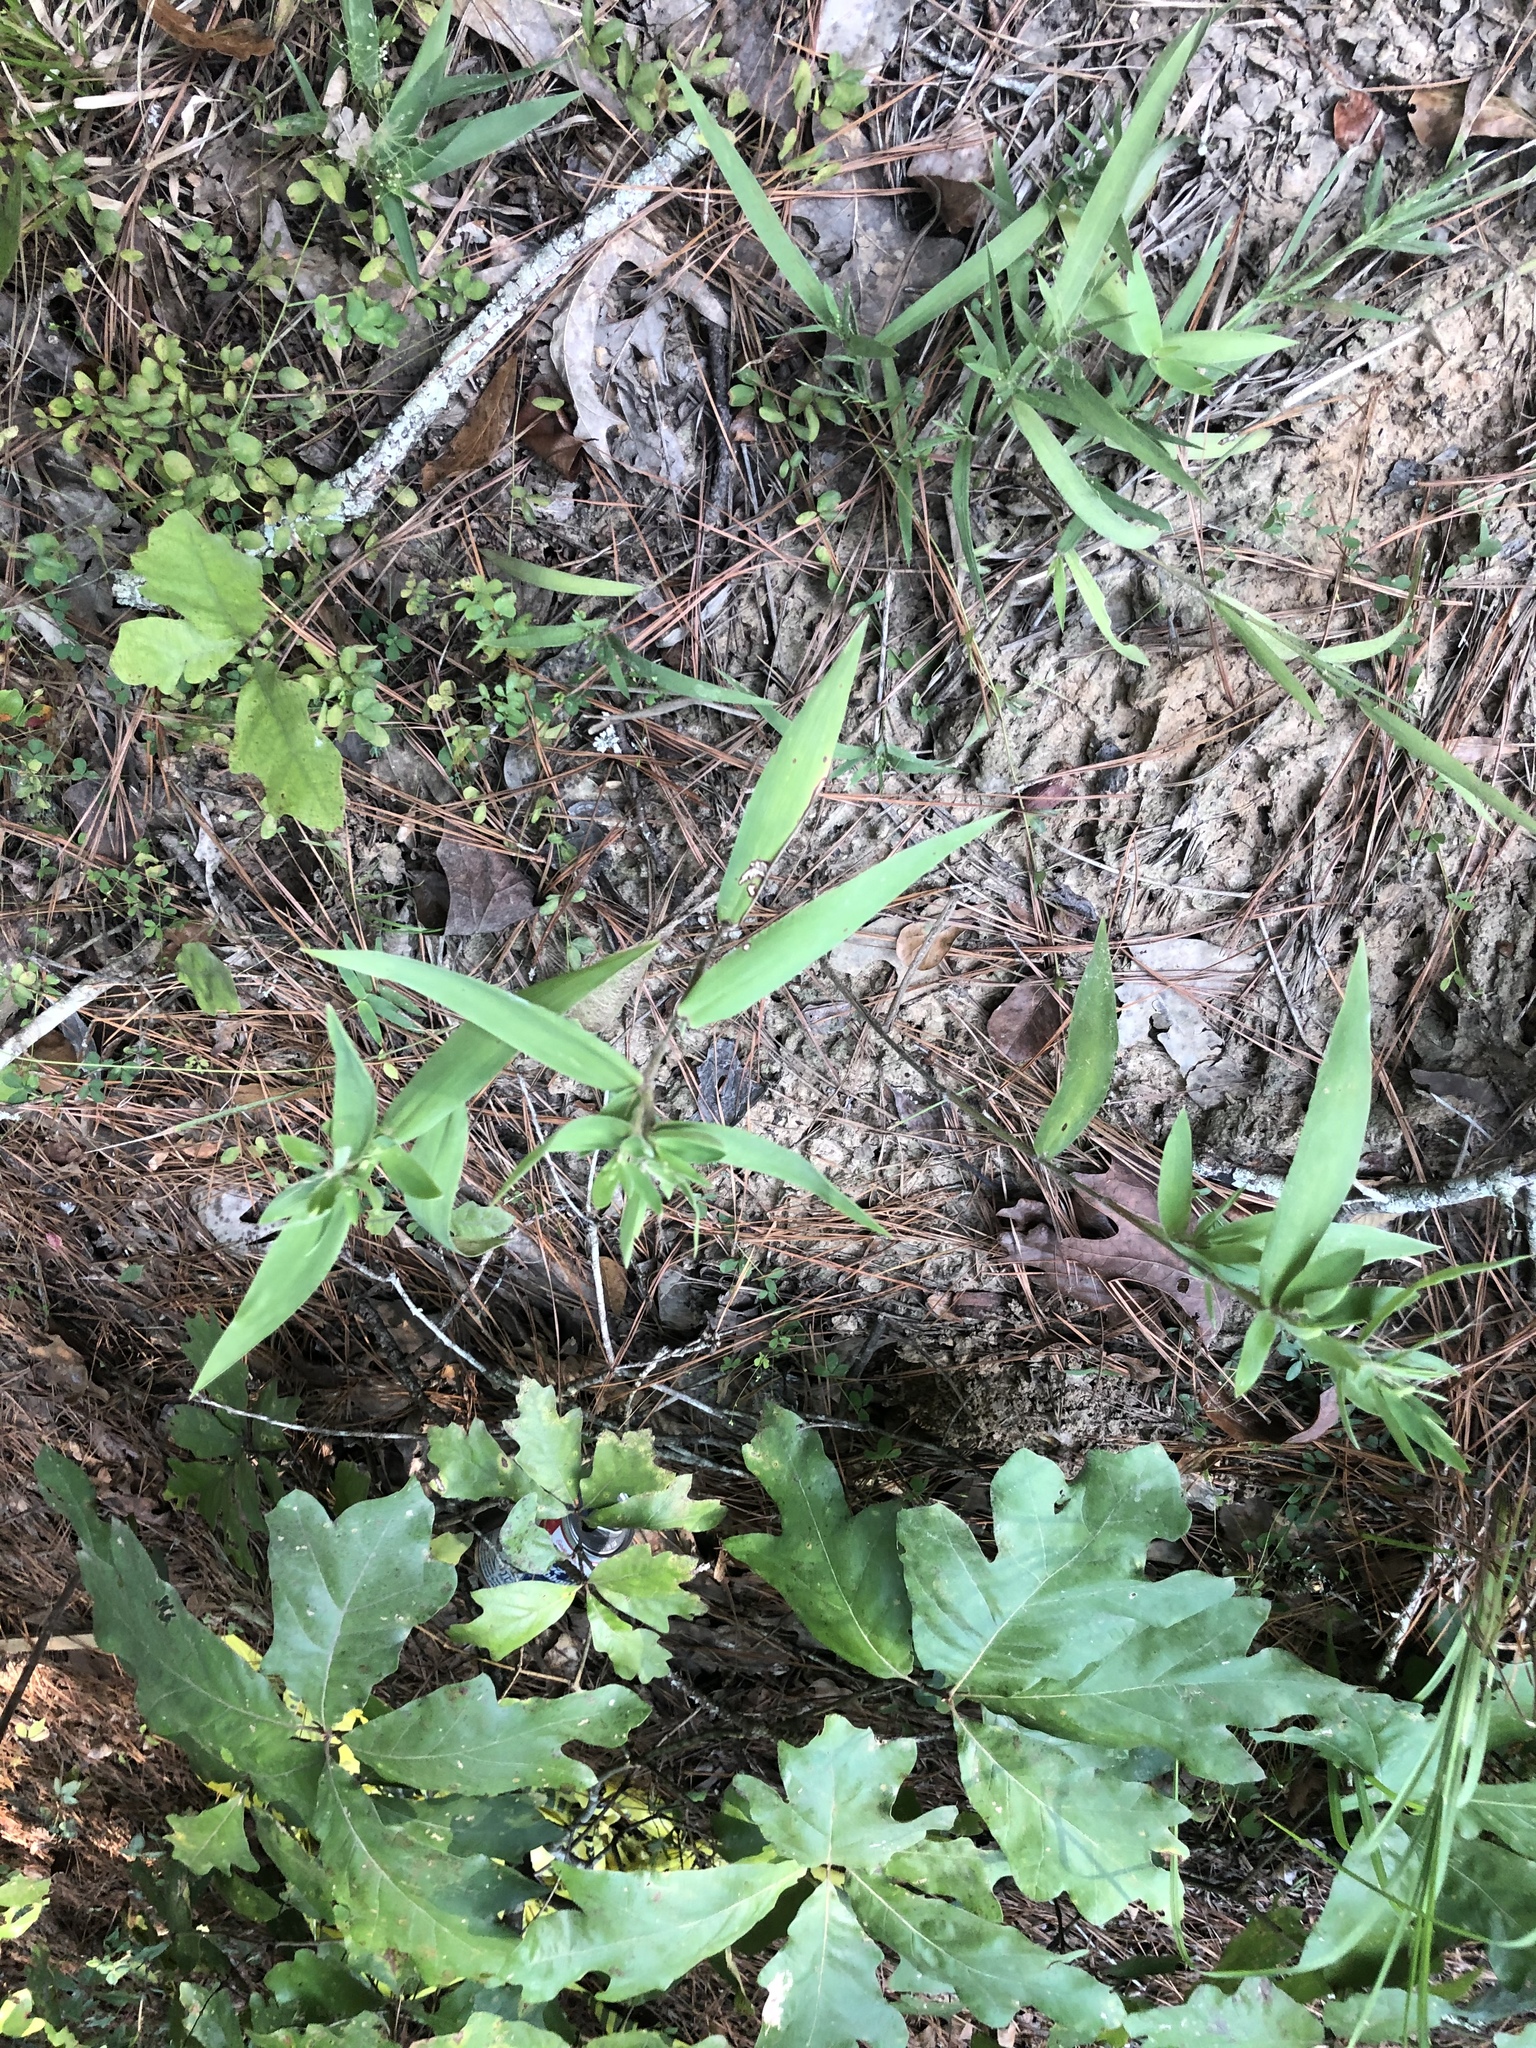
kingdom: Plantae
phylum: Tracheophyta
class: Liliopsida
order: Poales
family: Poaceae
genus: Dichanthelium
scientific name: Dichanthelium ravenelii
